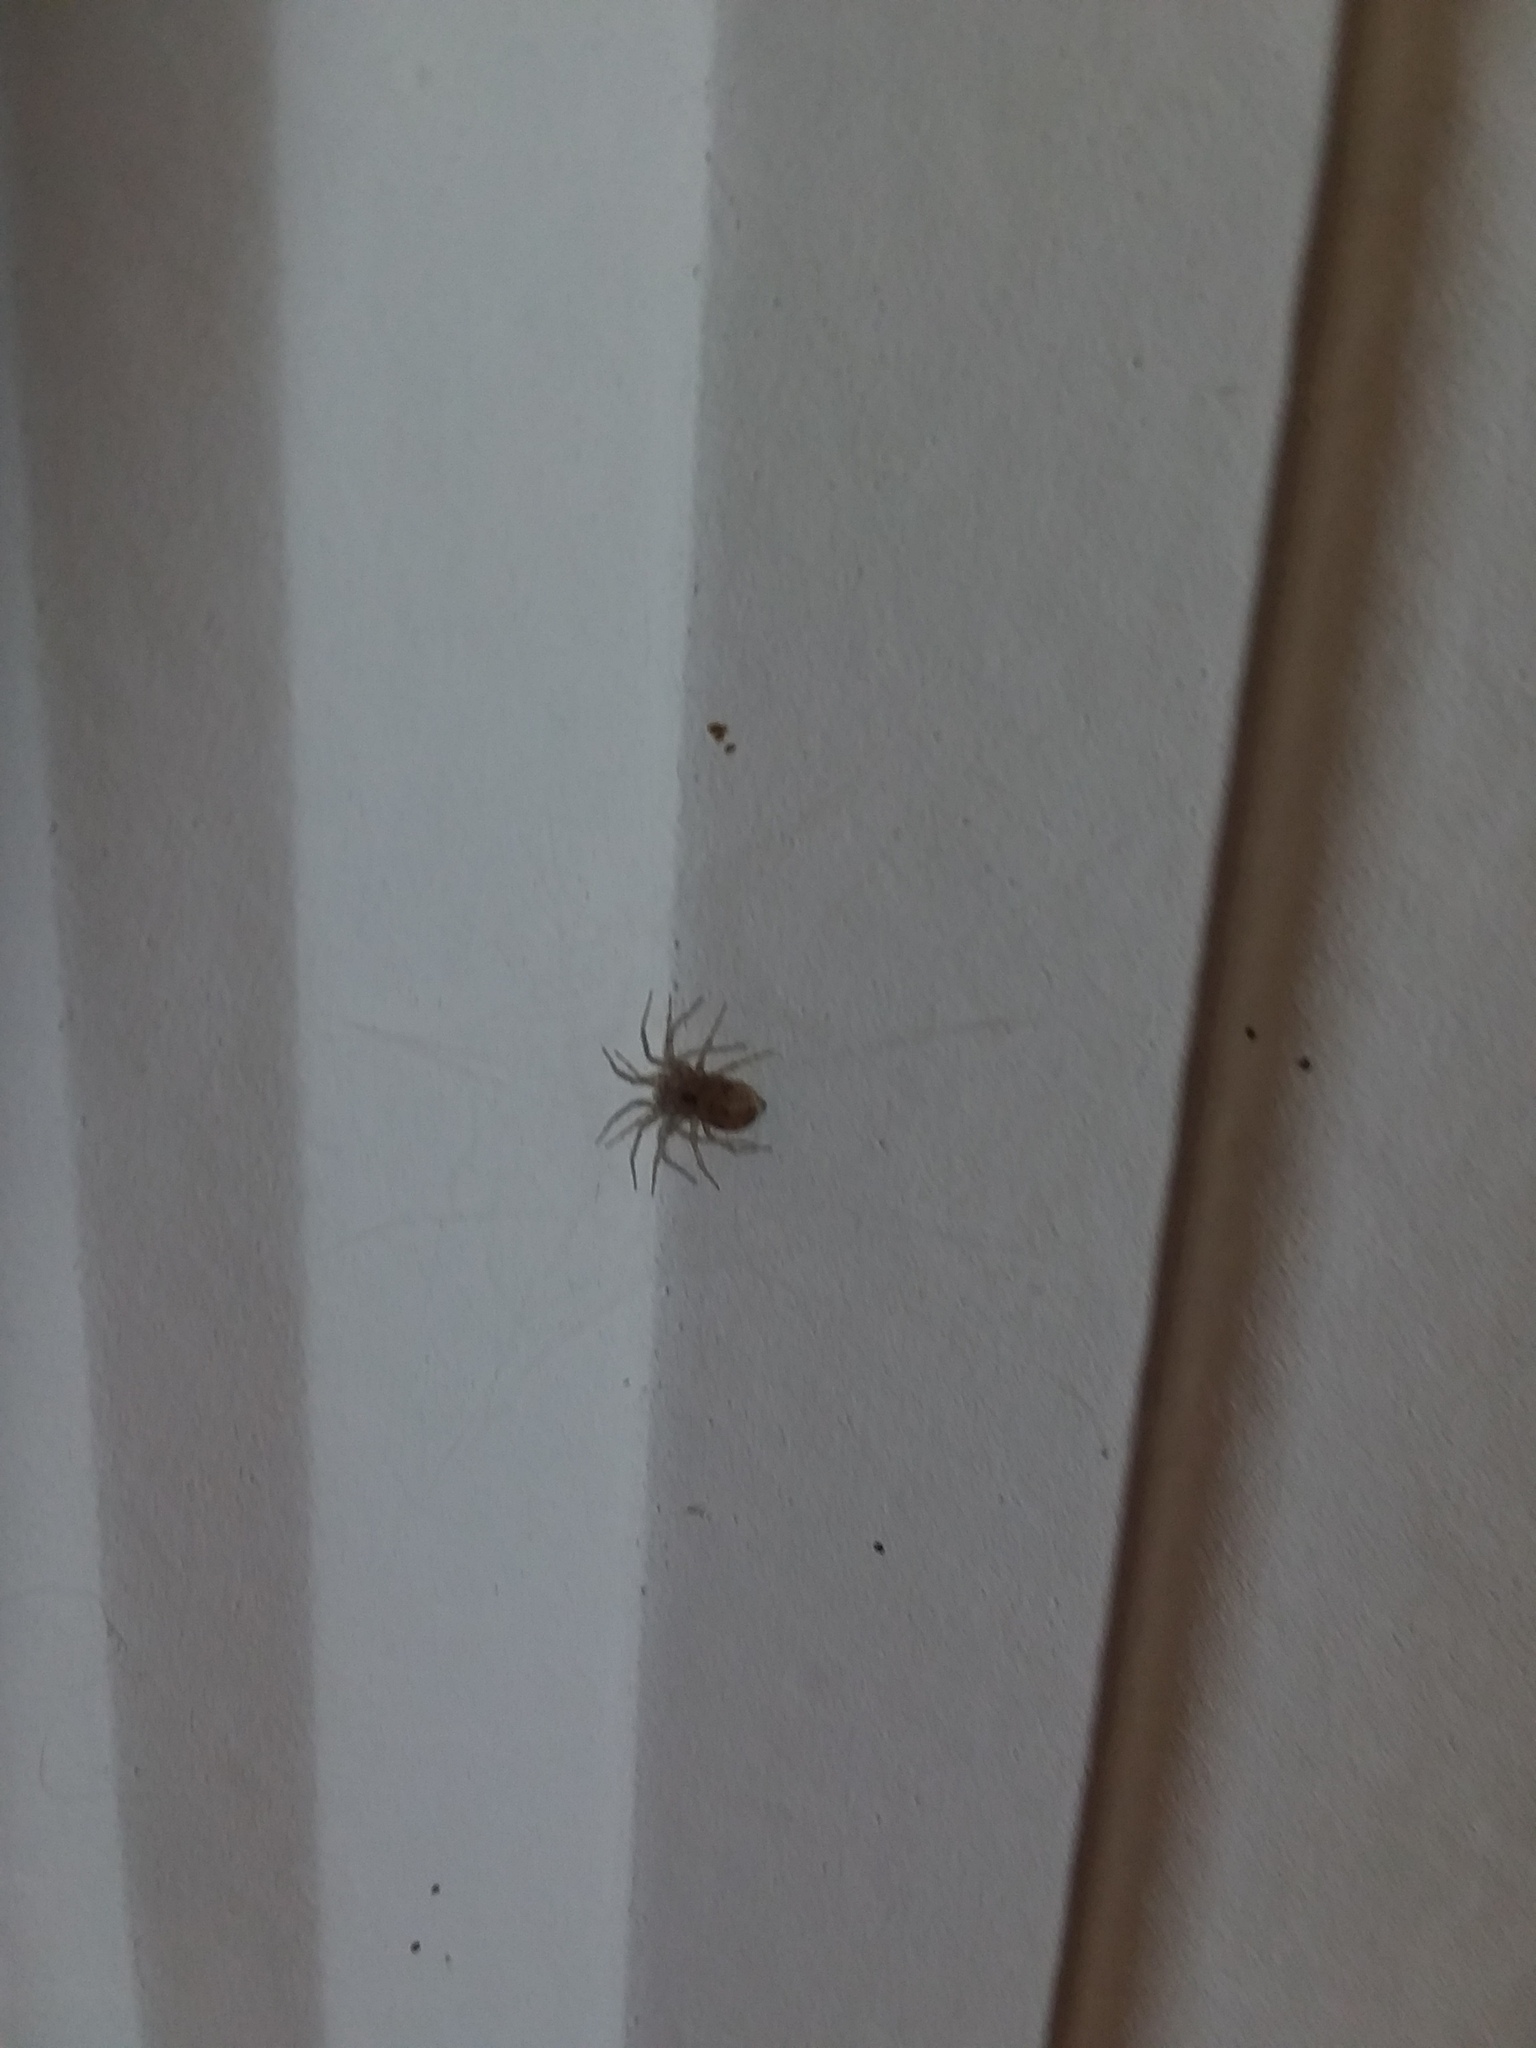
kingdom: Animalia
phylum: Arthropoda
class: Arachnida
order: Araneae
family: Oecobiidae
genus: Oecobius
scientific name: Oecobius navus
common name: Flatmesh weaver
